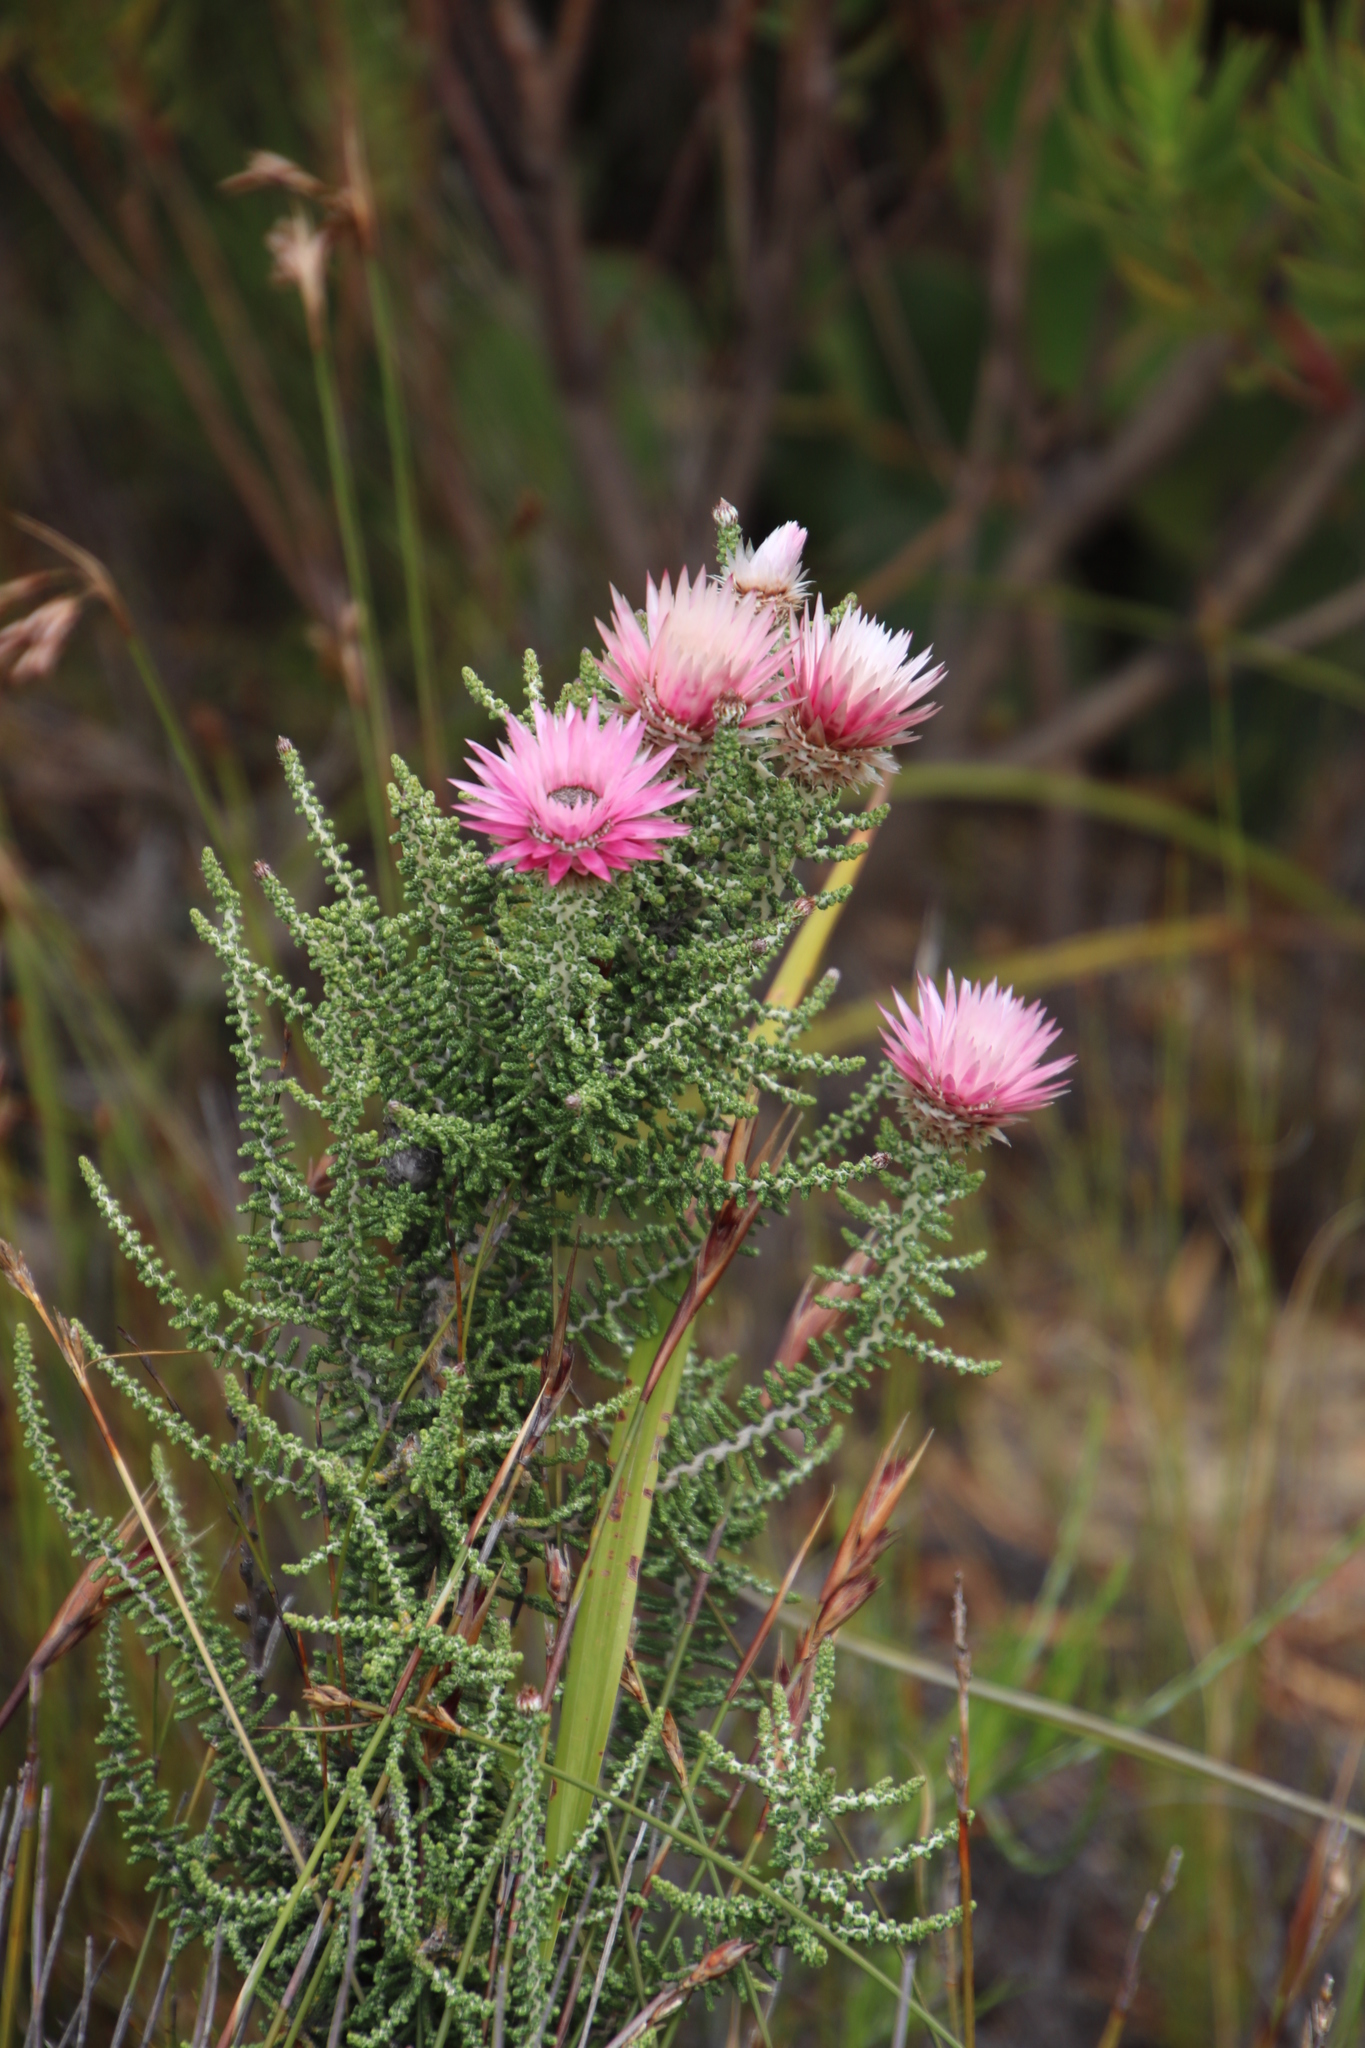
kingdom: Plantae
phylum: Tracheophyta
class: Magnoliopsida
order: Asterales
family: Asteraceae
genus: Phaenocoma
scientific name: Phaenocoma prolifera
